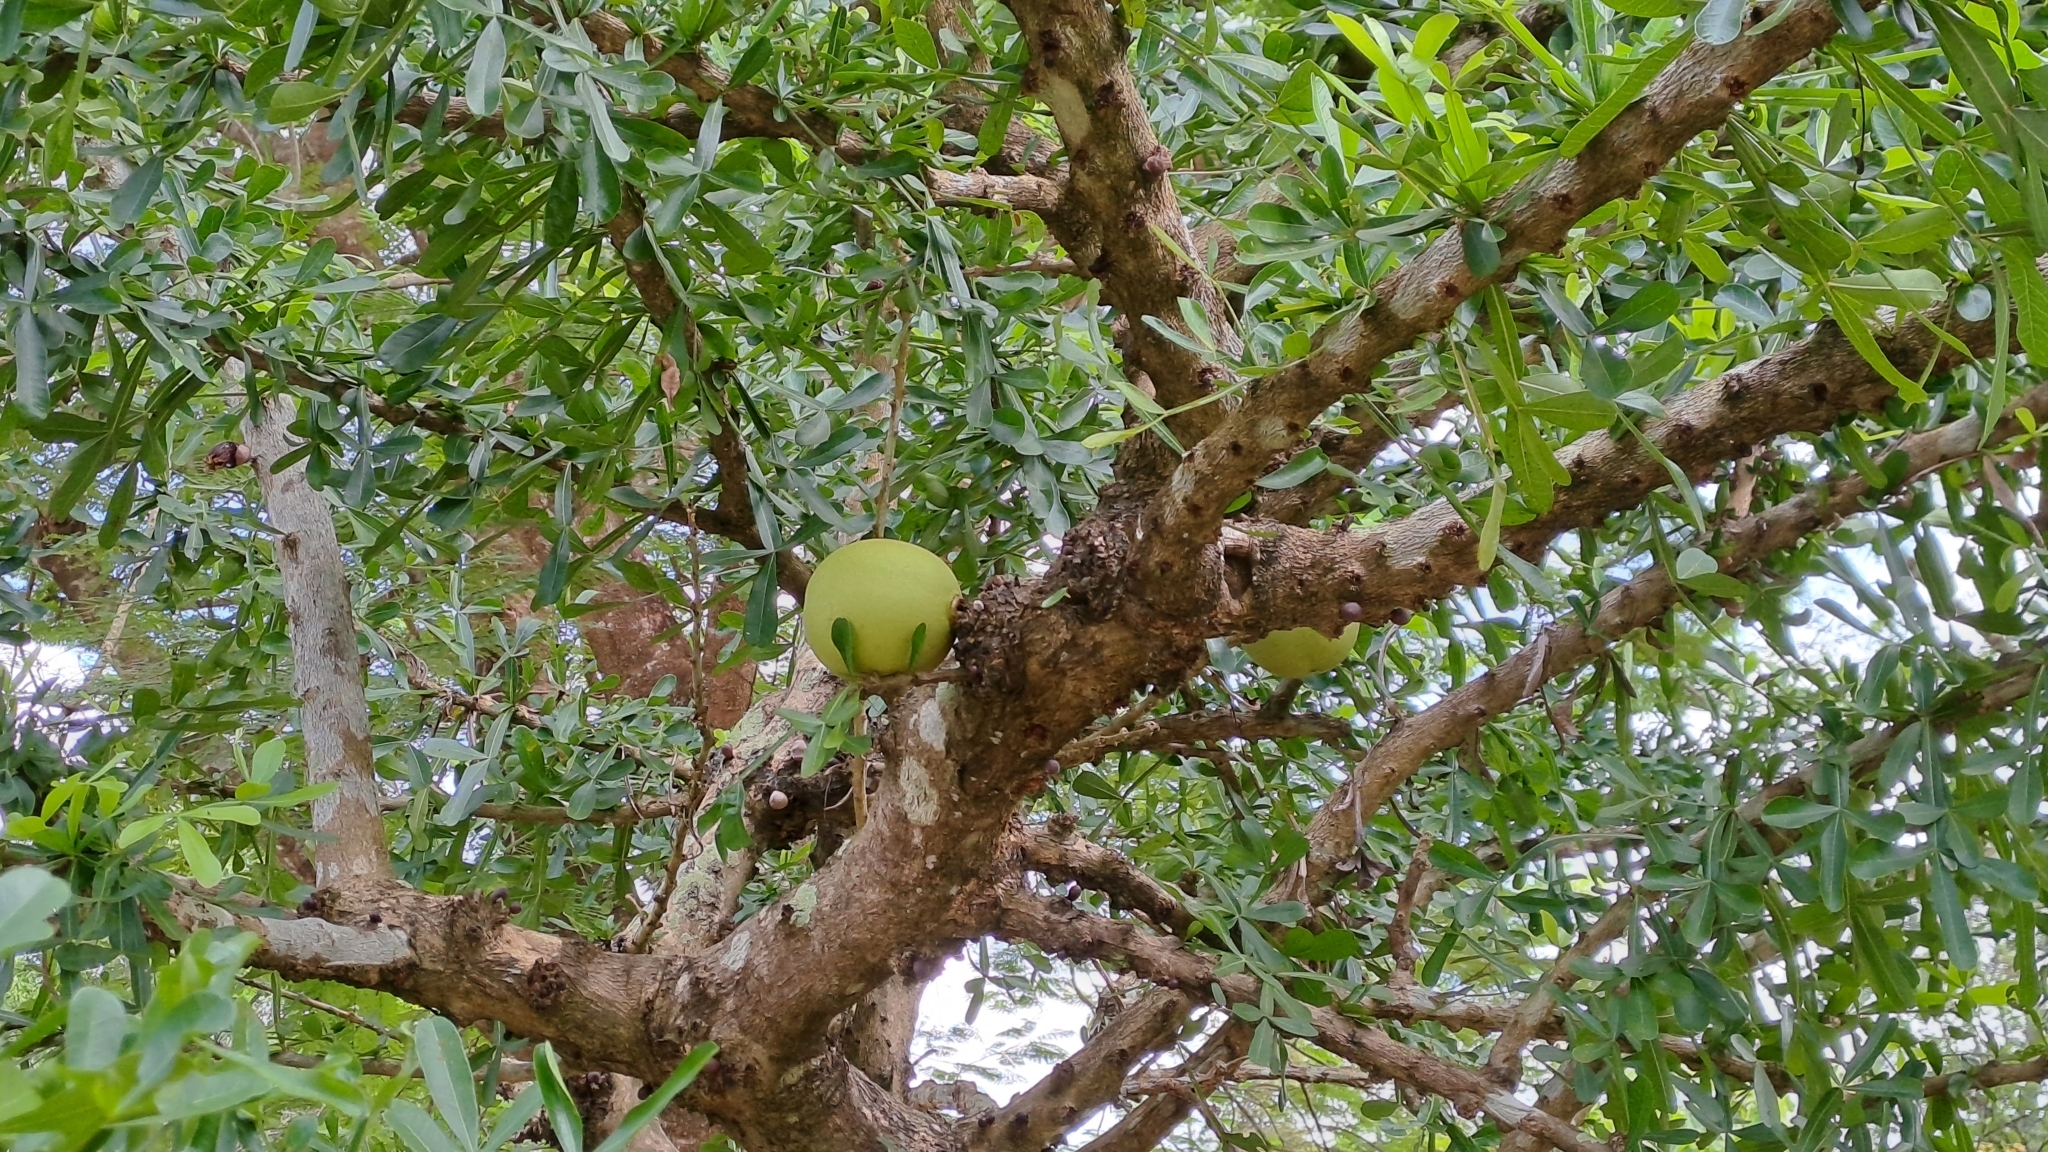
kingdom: Plantae
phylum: Tracheophyta
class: Magnoliopsida
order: Lamiales
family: Bignoniaceae
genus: Crescentia
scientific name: Crescentia alata
